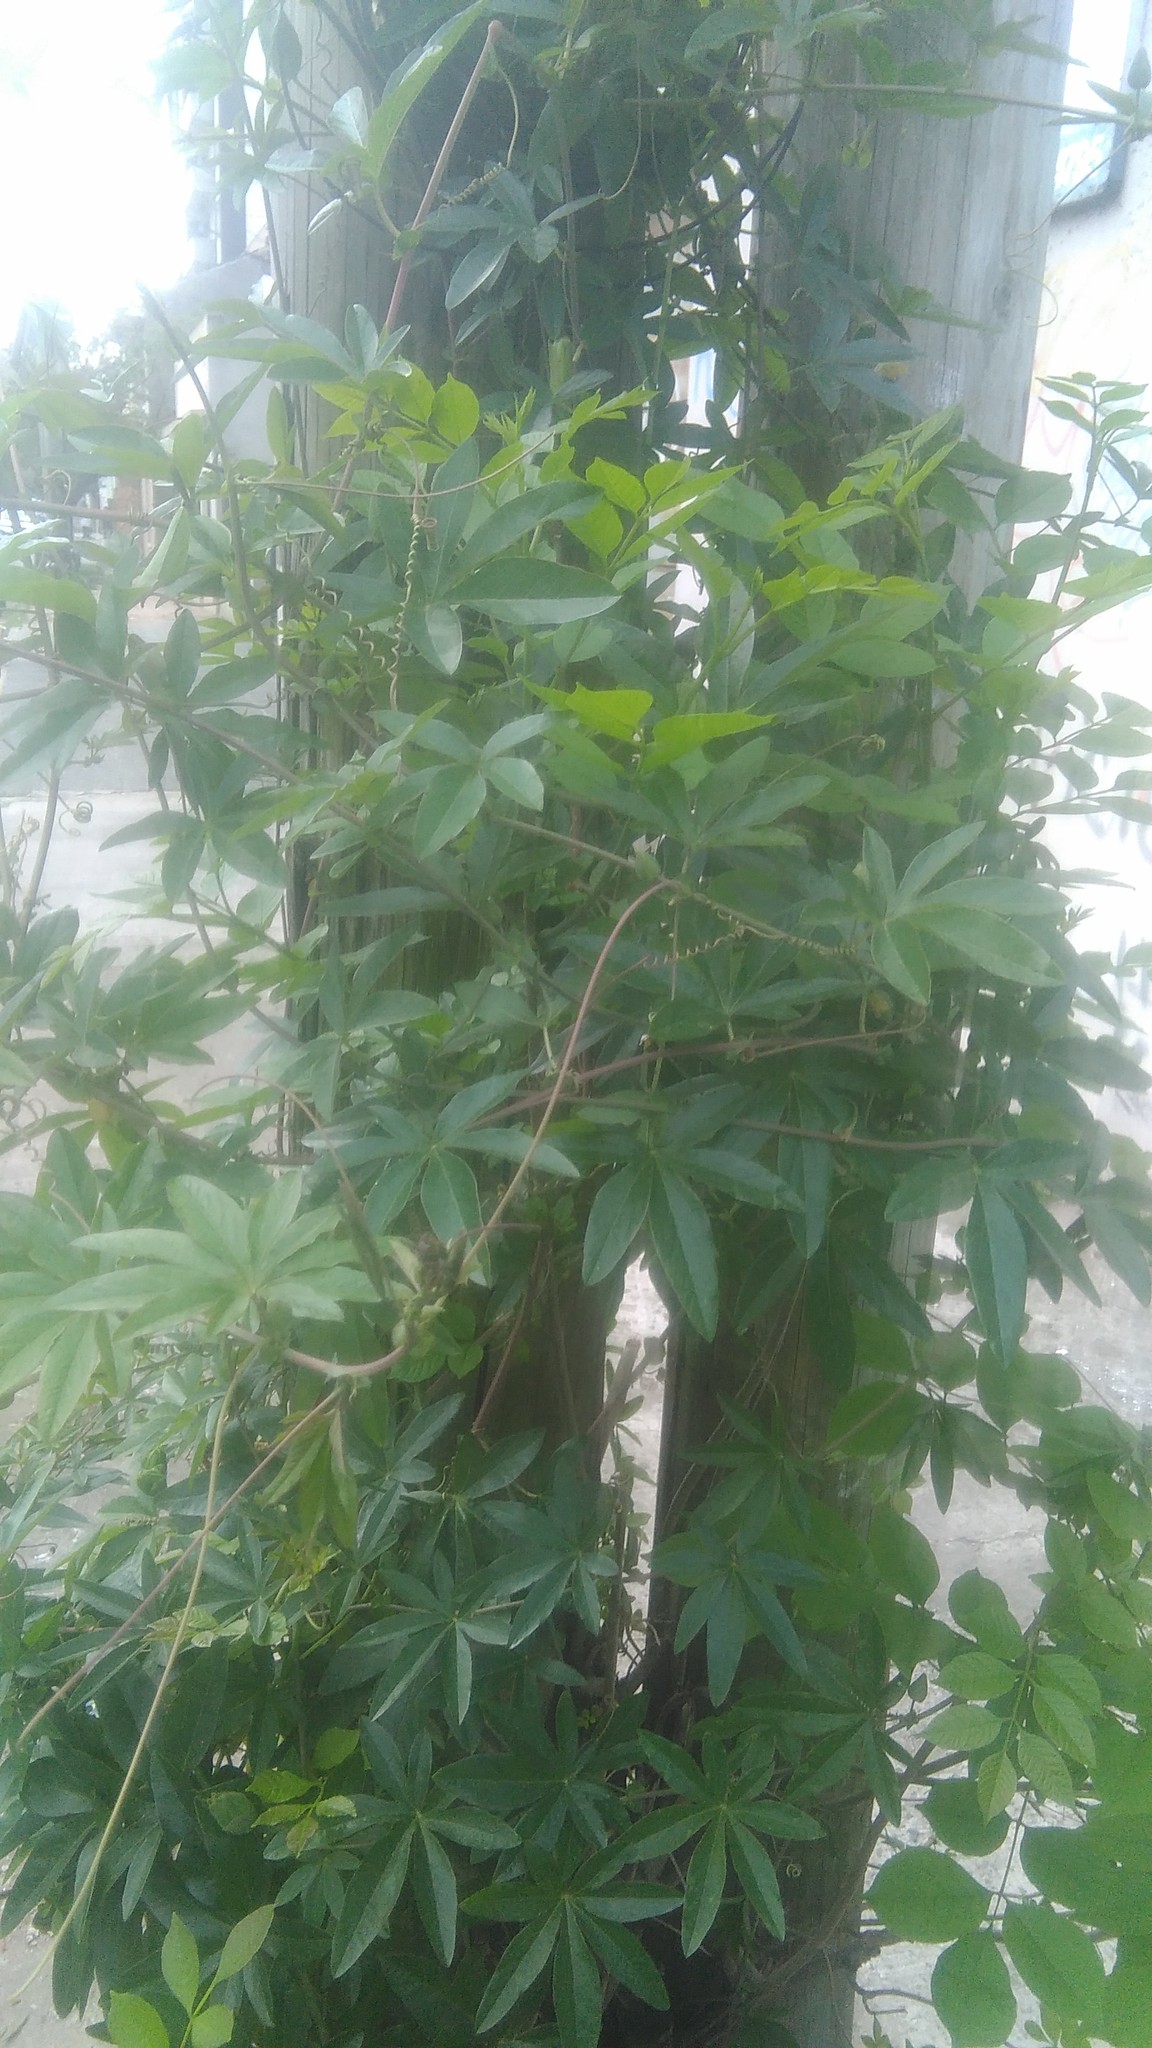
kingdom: Plantae
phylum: Tracheophyta
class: Magnoliopsida
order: Malpighiales
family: Passifloraceae
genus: Passiflora
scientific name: Passiflora caerulea
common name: Blue passionflower
